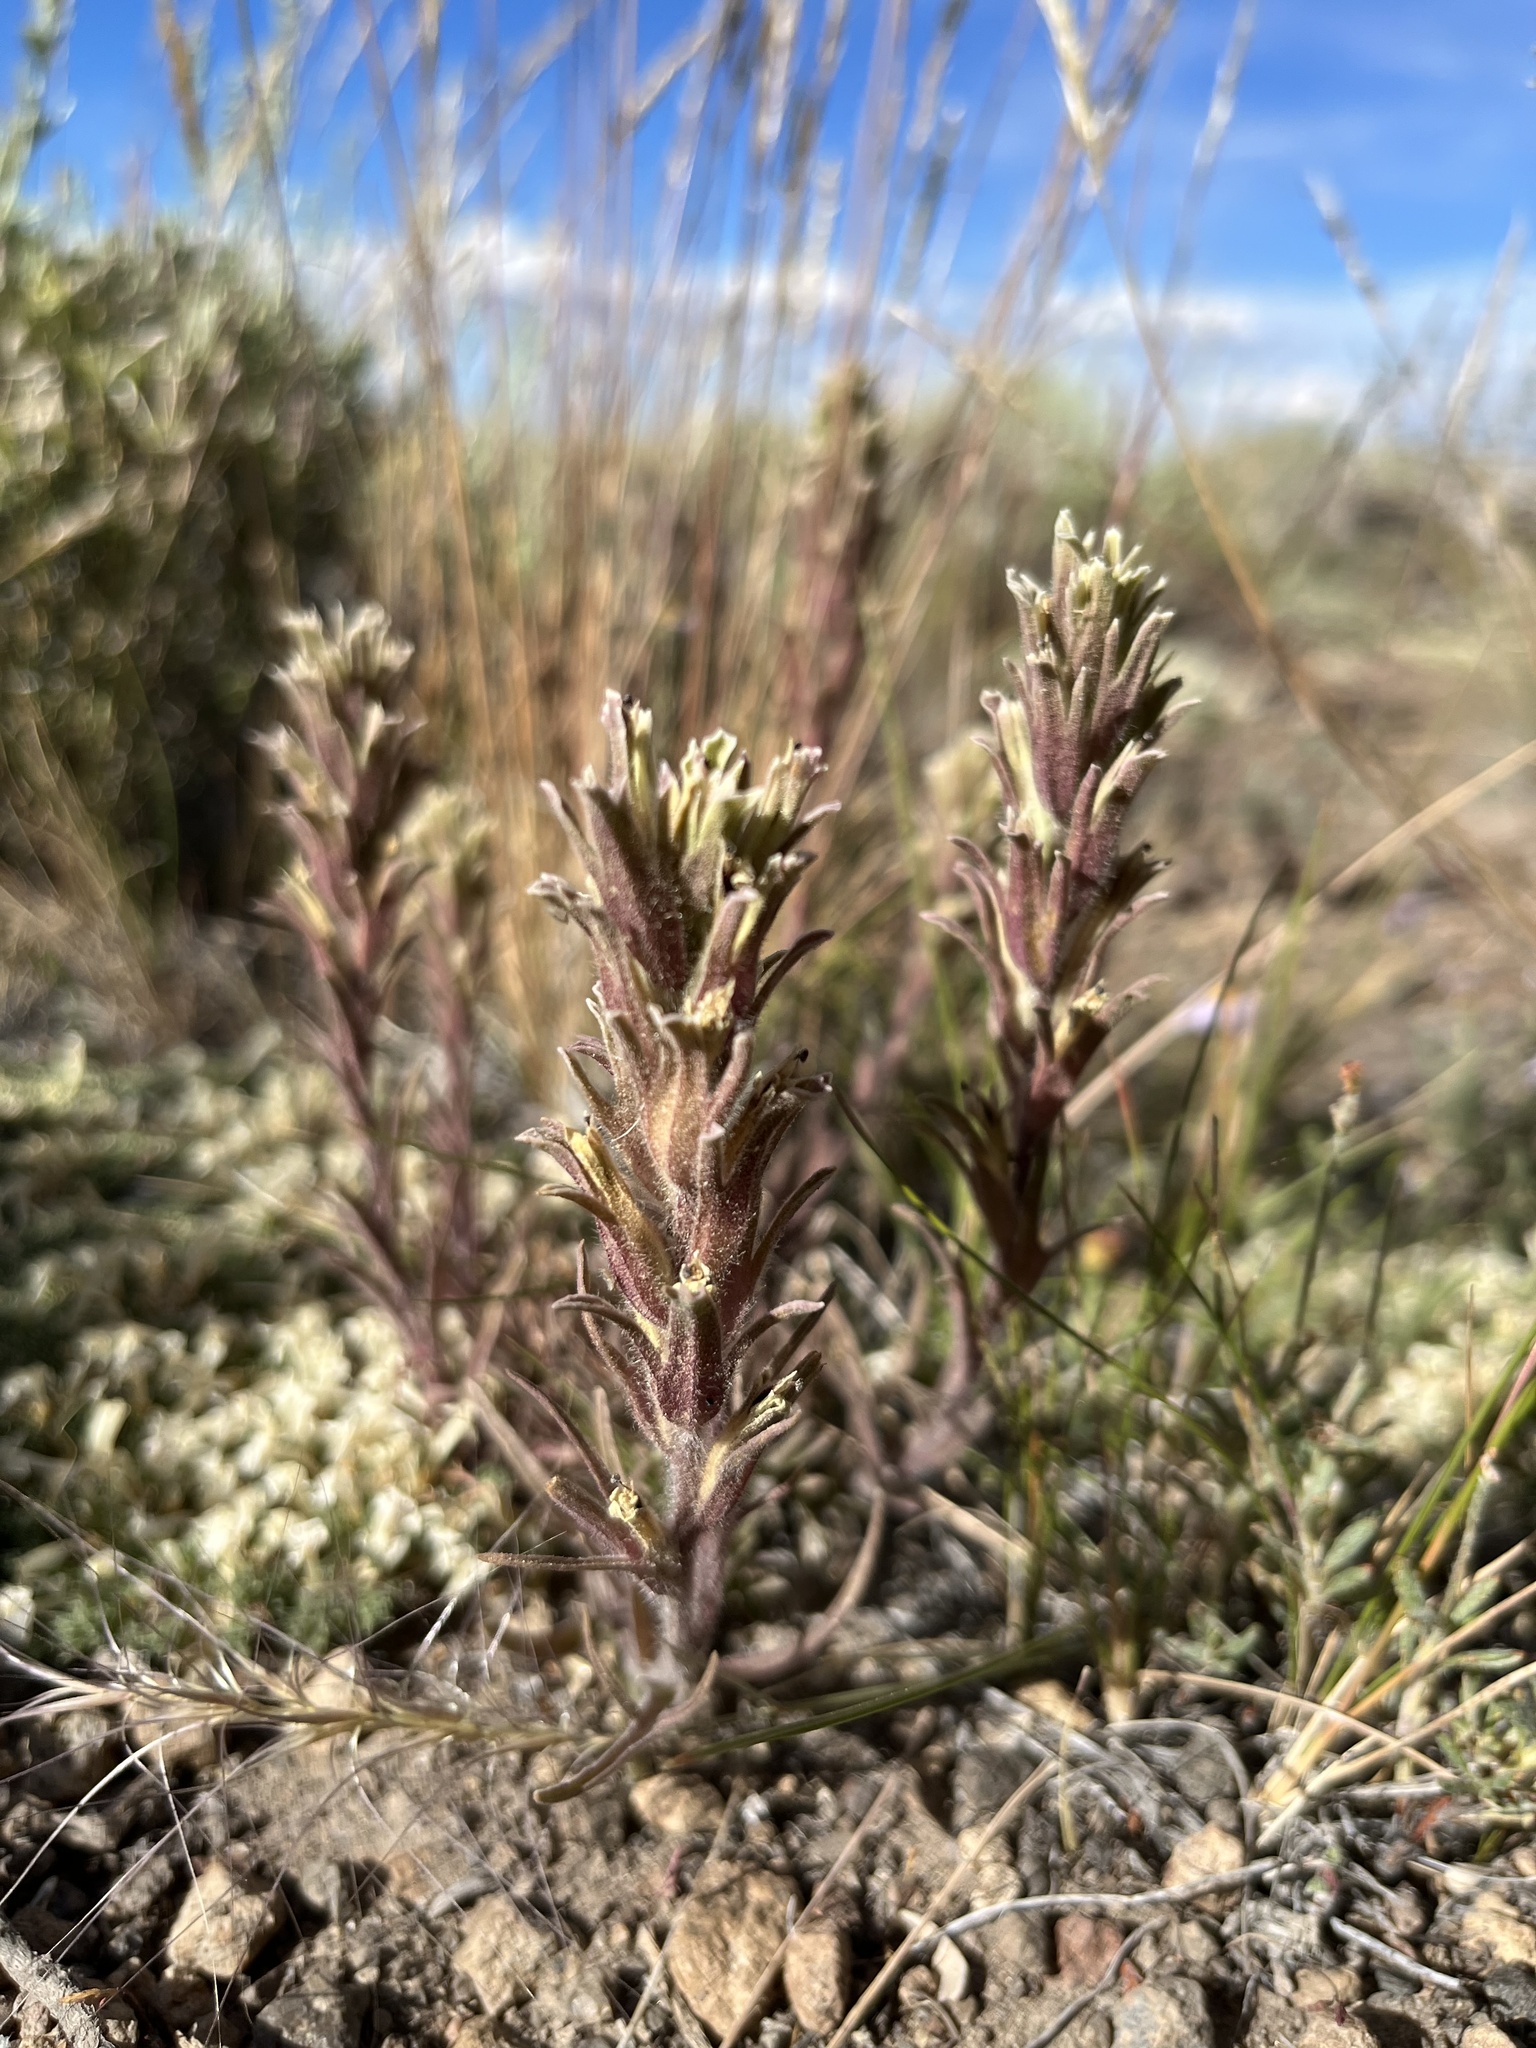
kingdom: Plantae
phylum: Tracheophyta
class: Magnoliopsida
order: Lamiales
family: Orobanchaceae
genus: Castilleja
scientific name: Castilleja nana
